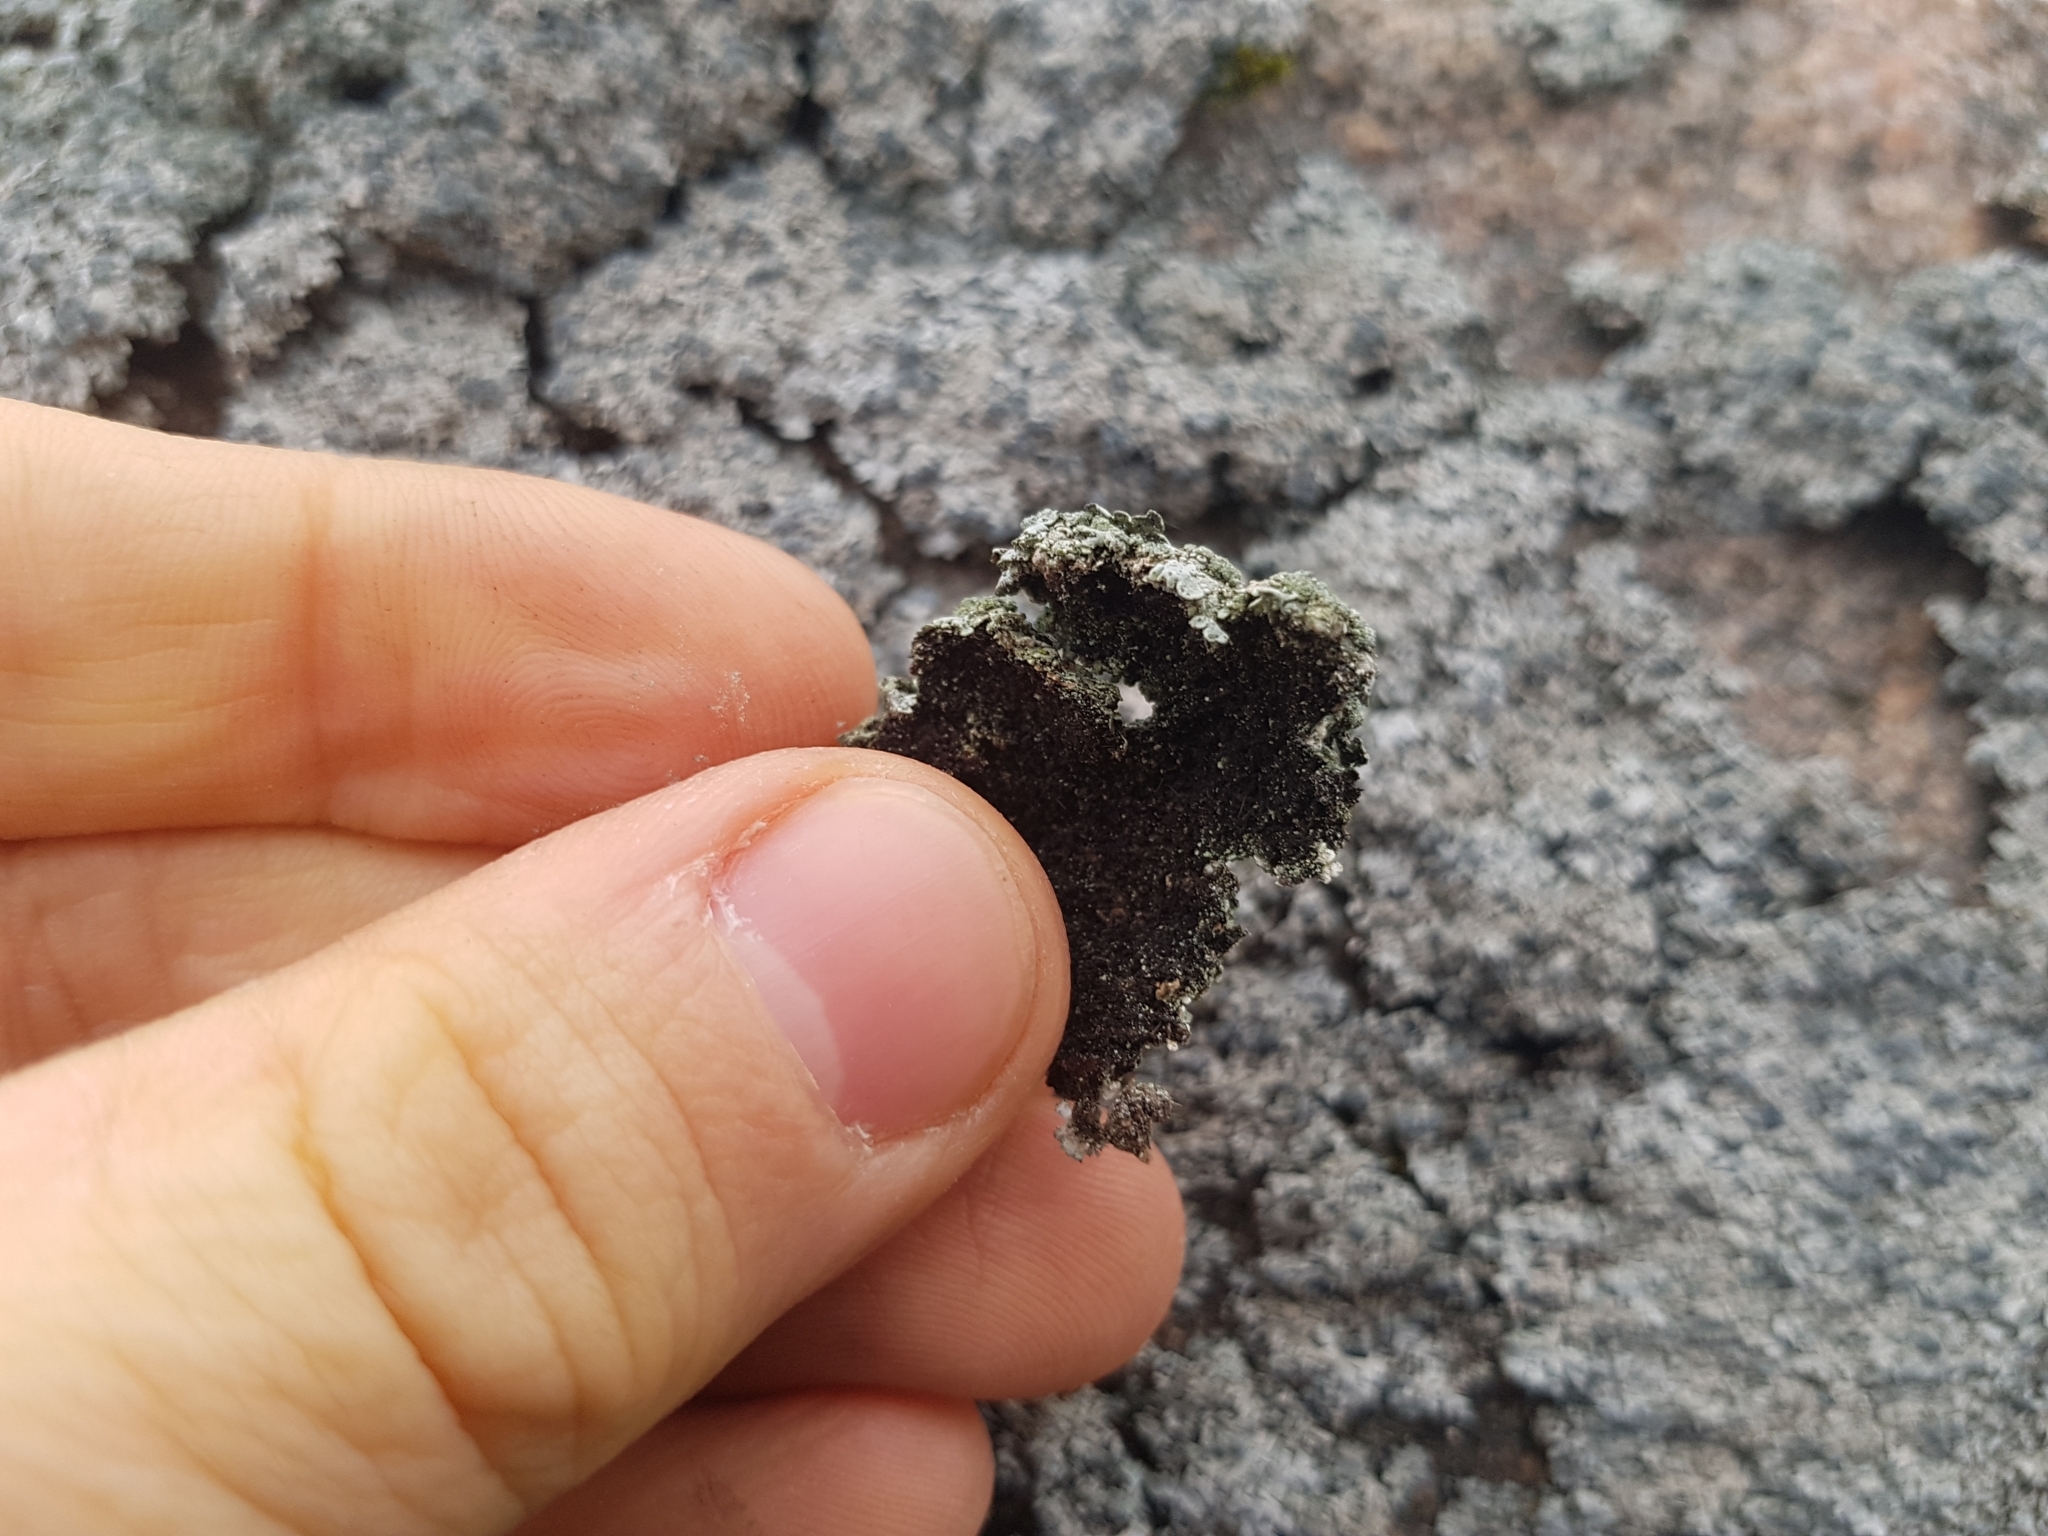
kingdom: Fungi
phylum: Ascomycota
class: Lecanoromycetes
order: Caliciales
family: Physciaceae
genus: Physcia
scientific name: Physcia caesia
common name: Blue-gray rosette lichen
